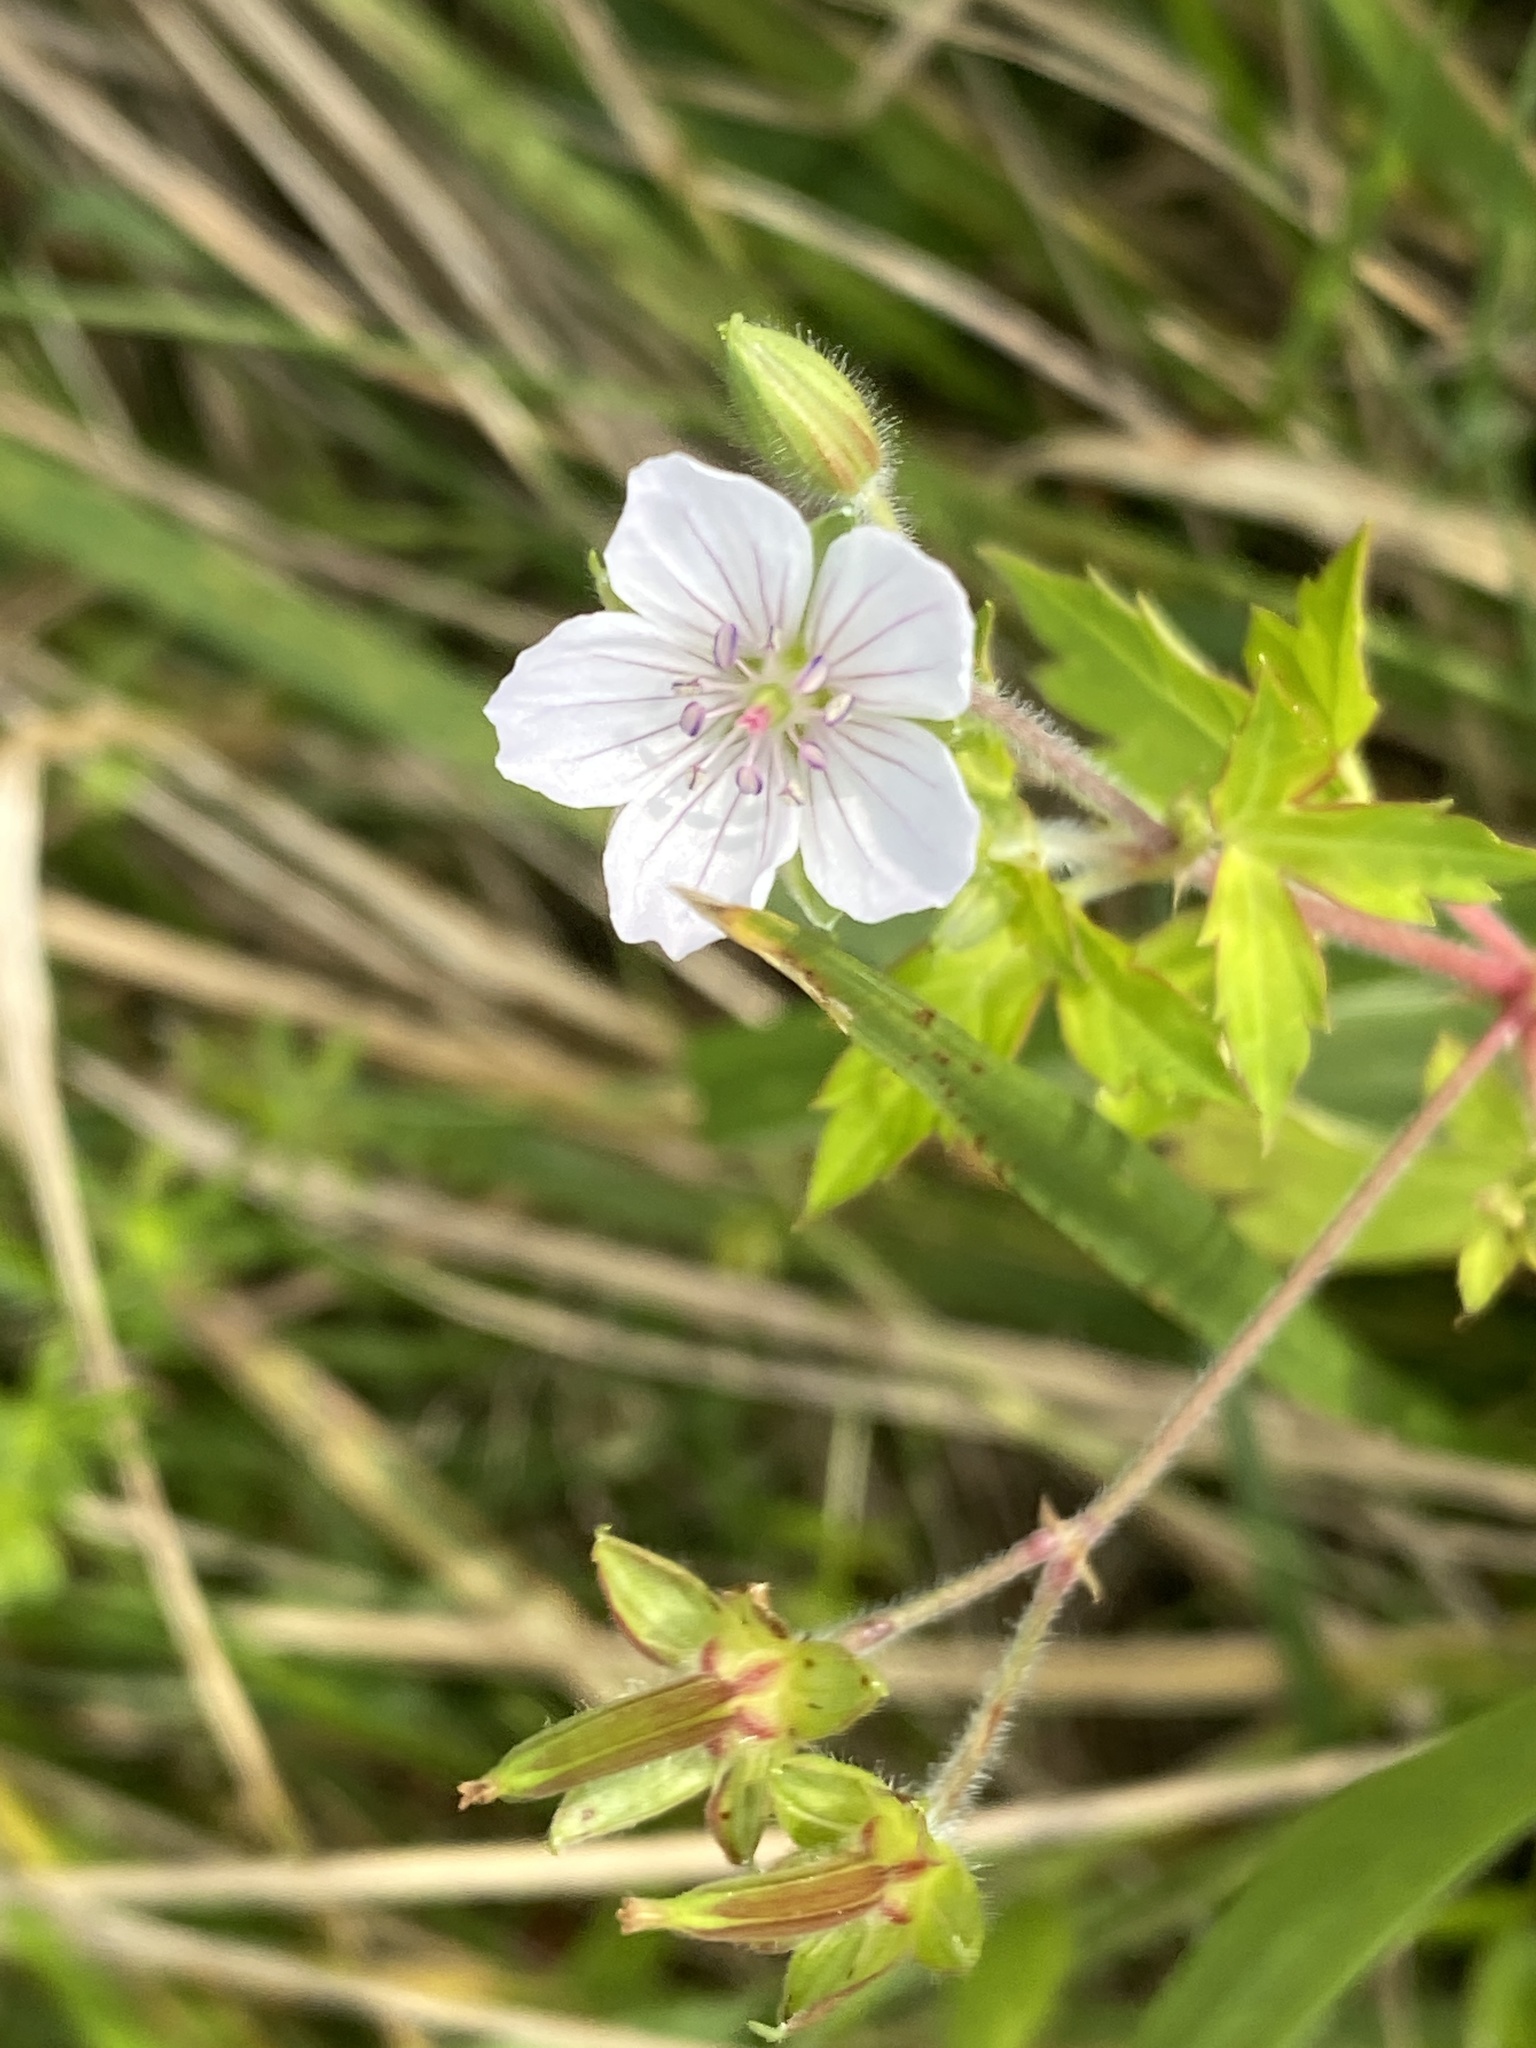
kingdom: Plantae
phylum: Tracheophyta
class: Magnoliopsida
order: Geraniales
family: Geraniaceae
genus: Geranium
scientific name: Geranium thunbergii
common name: Dewdrop crane's-bill
